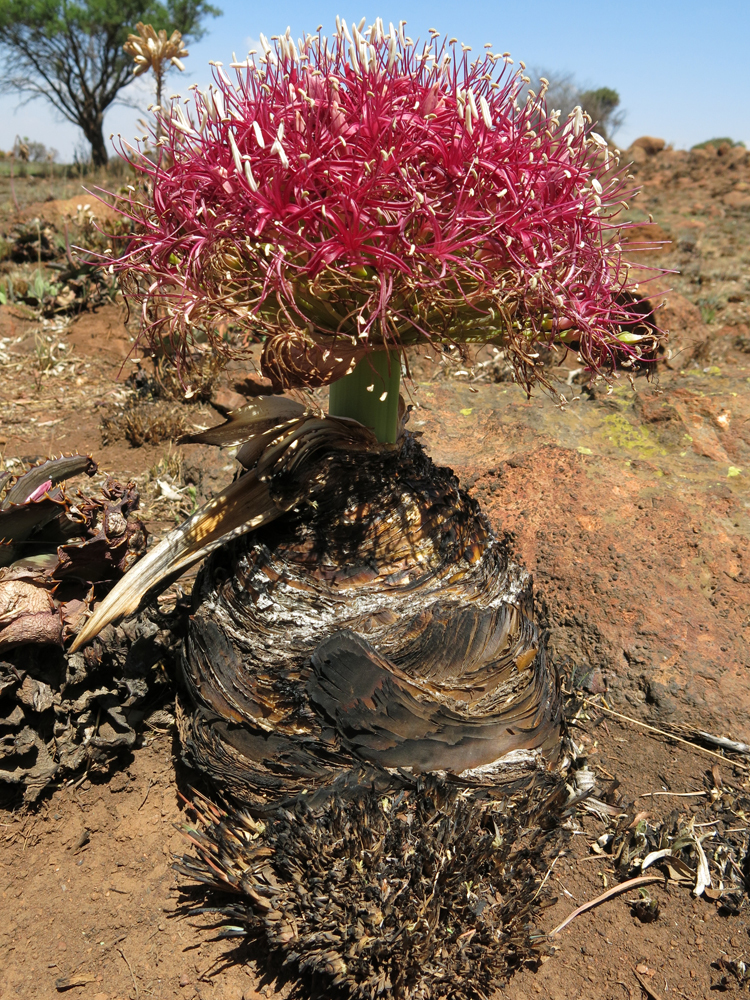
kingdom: Plantae
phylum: Tracheophyta
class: Liliopsida
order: Asparagales
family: Amaryllidaceae
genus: Boophone
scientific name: Boophone disticha
